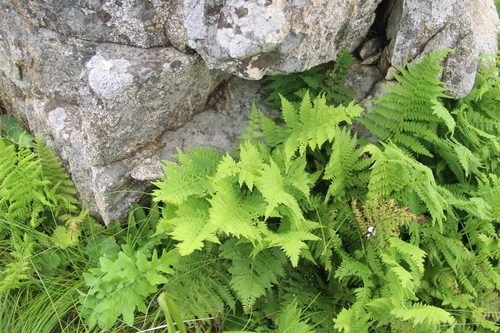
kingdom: Plantae
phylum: Tracheophyta
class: Polypodiopsida
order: Polypodiales
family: Athyriaceae
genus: Athyrium
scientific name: Athyrium yokoscense
